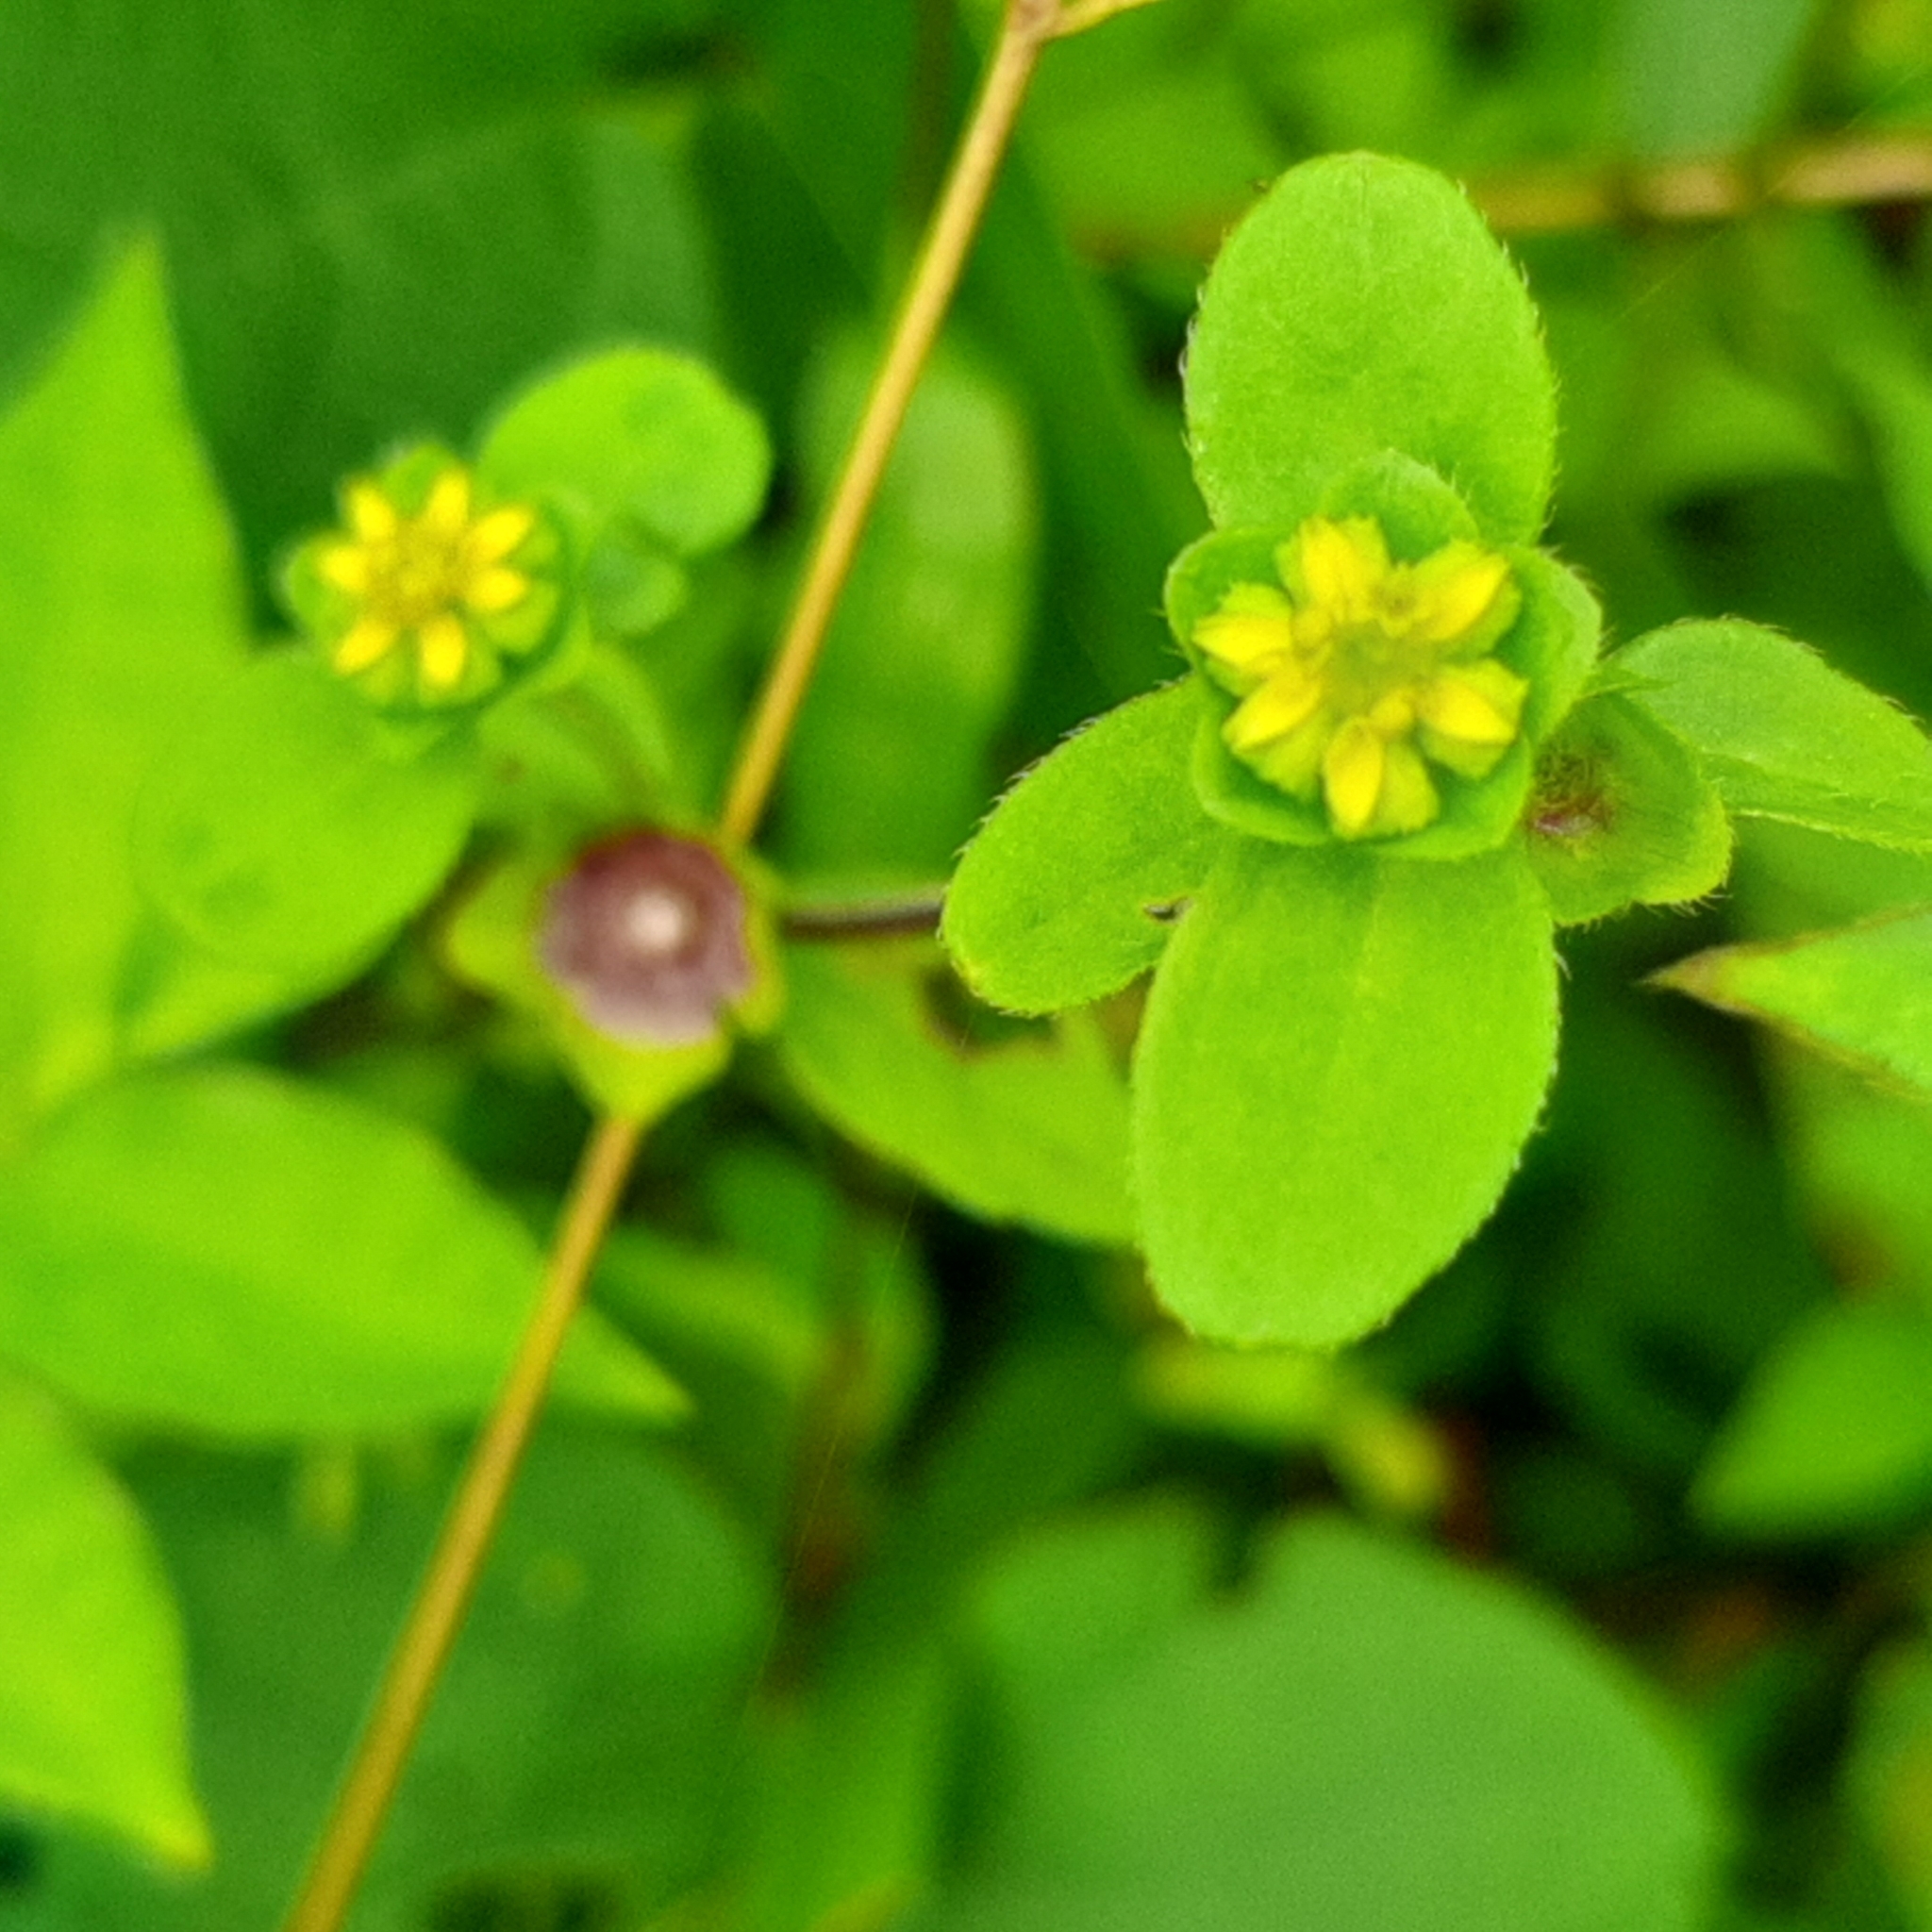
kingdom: Plantae
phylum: Tracheophyta
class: Magnoliopsida
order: Asterales
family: Asteraceae
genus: Melampodium
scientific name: Melampodium costaricense
